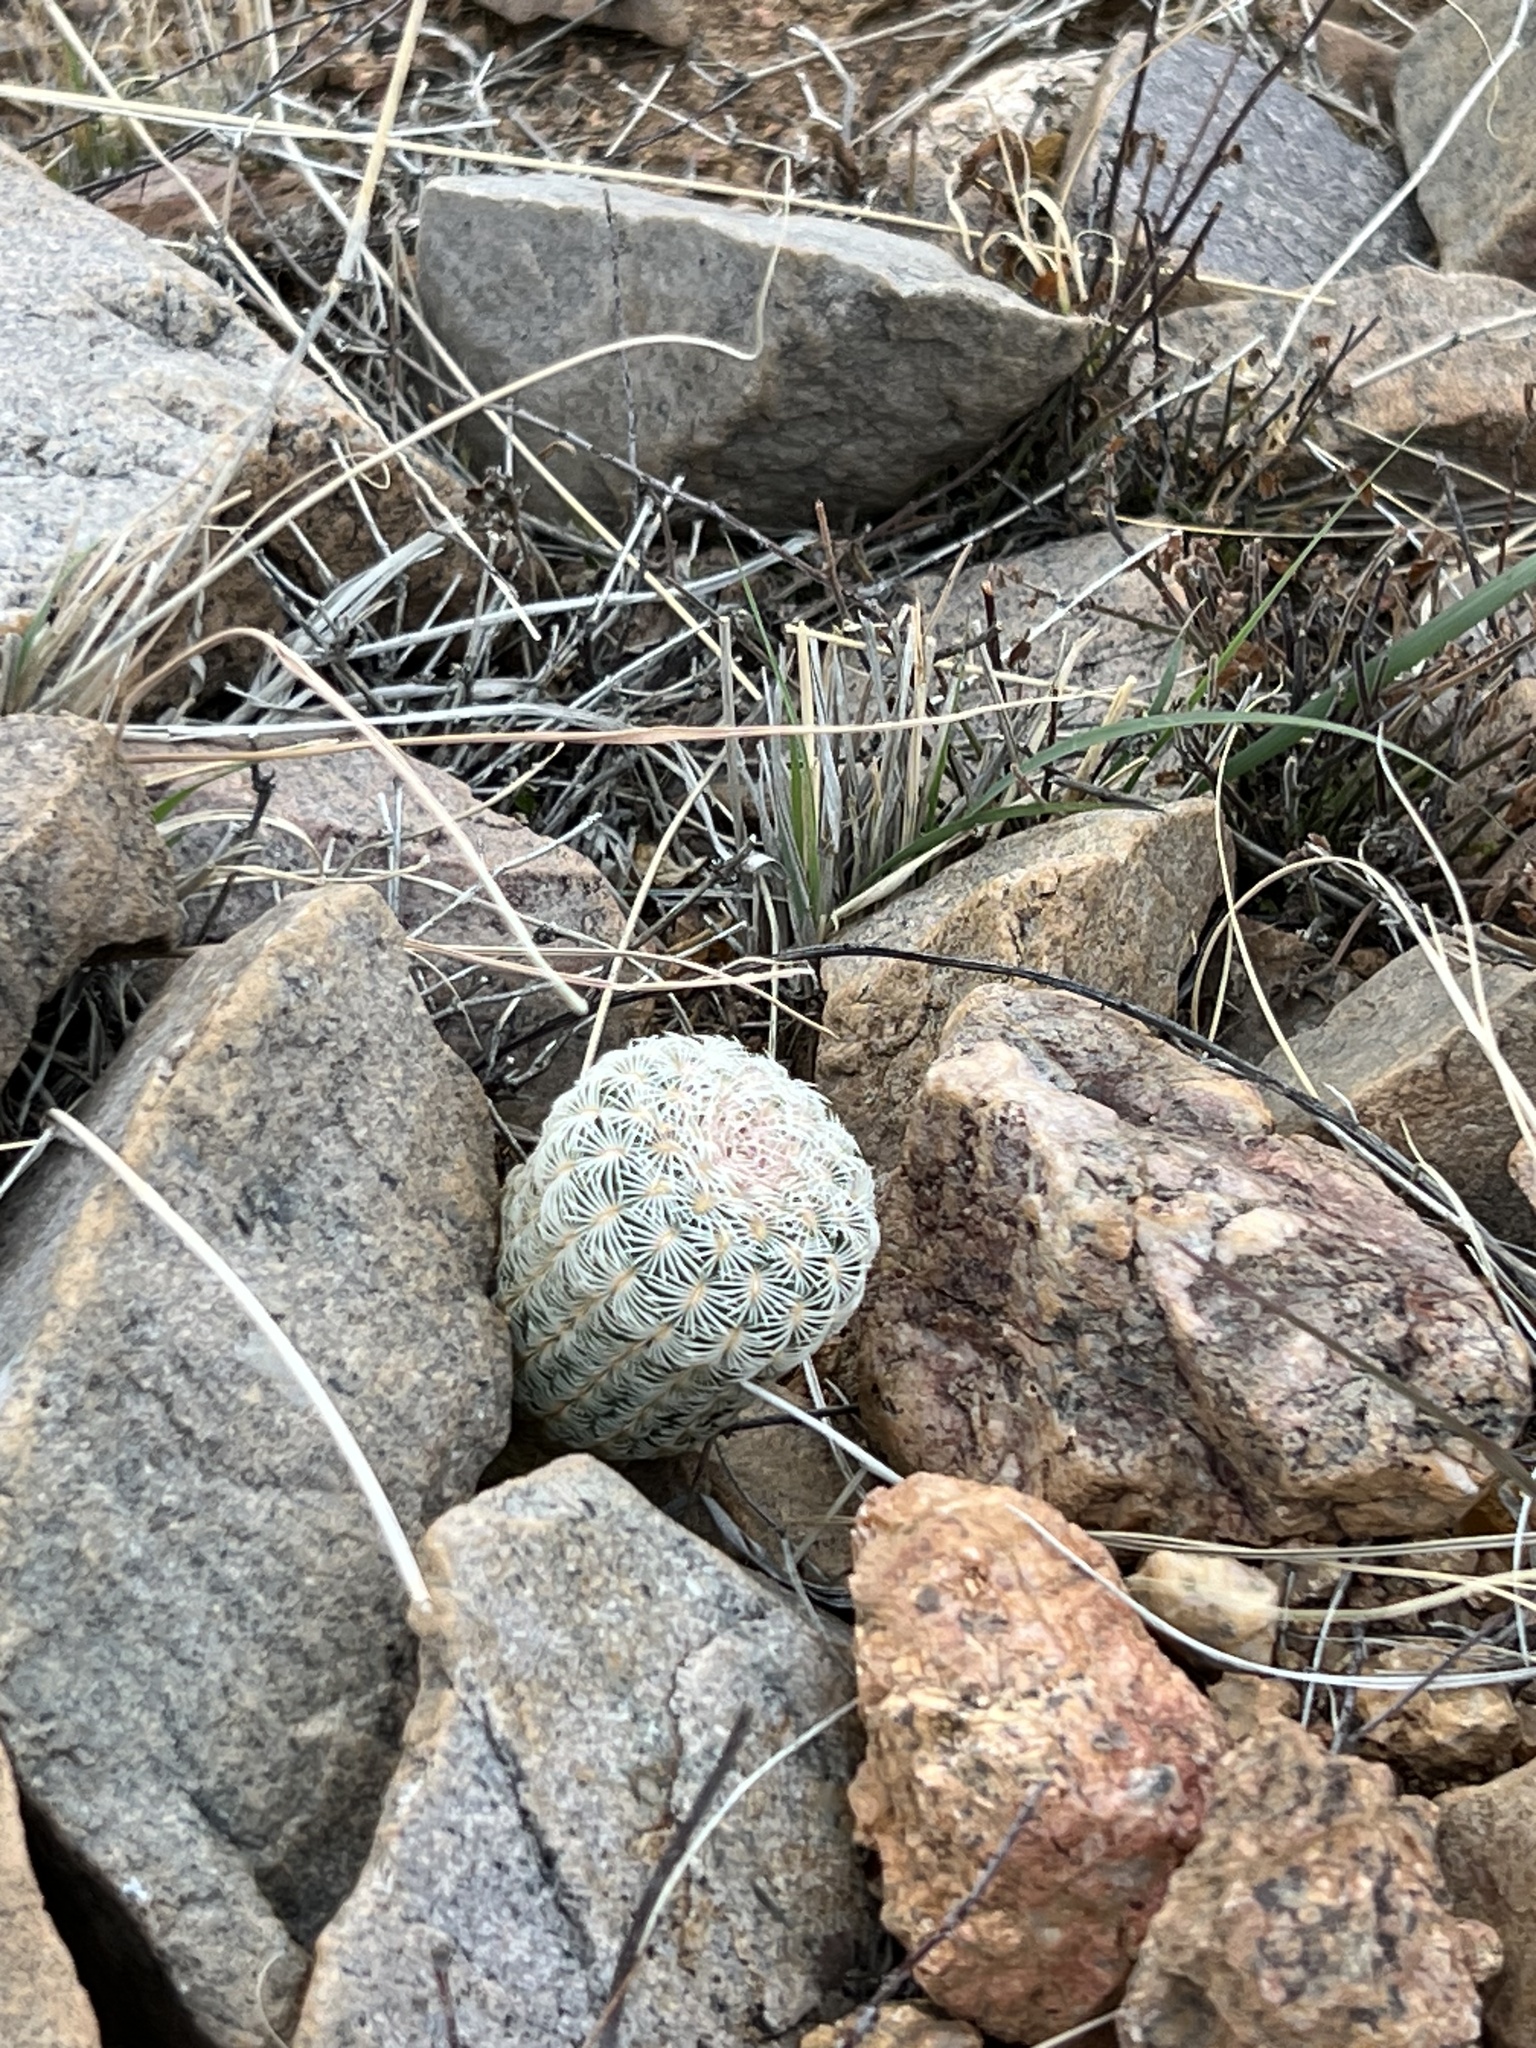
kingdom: Plantae
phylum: Tracheophyta
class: Magnoliopsida
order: Caryophyllales
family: Cactaceae
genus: Echinocereus
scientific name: Echinocereus rigidissimus
